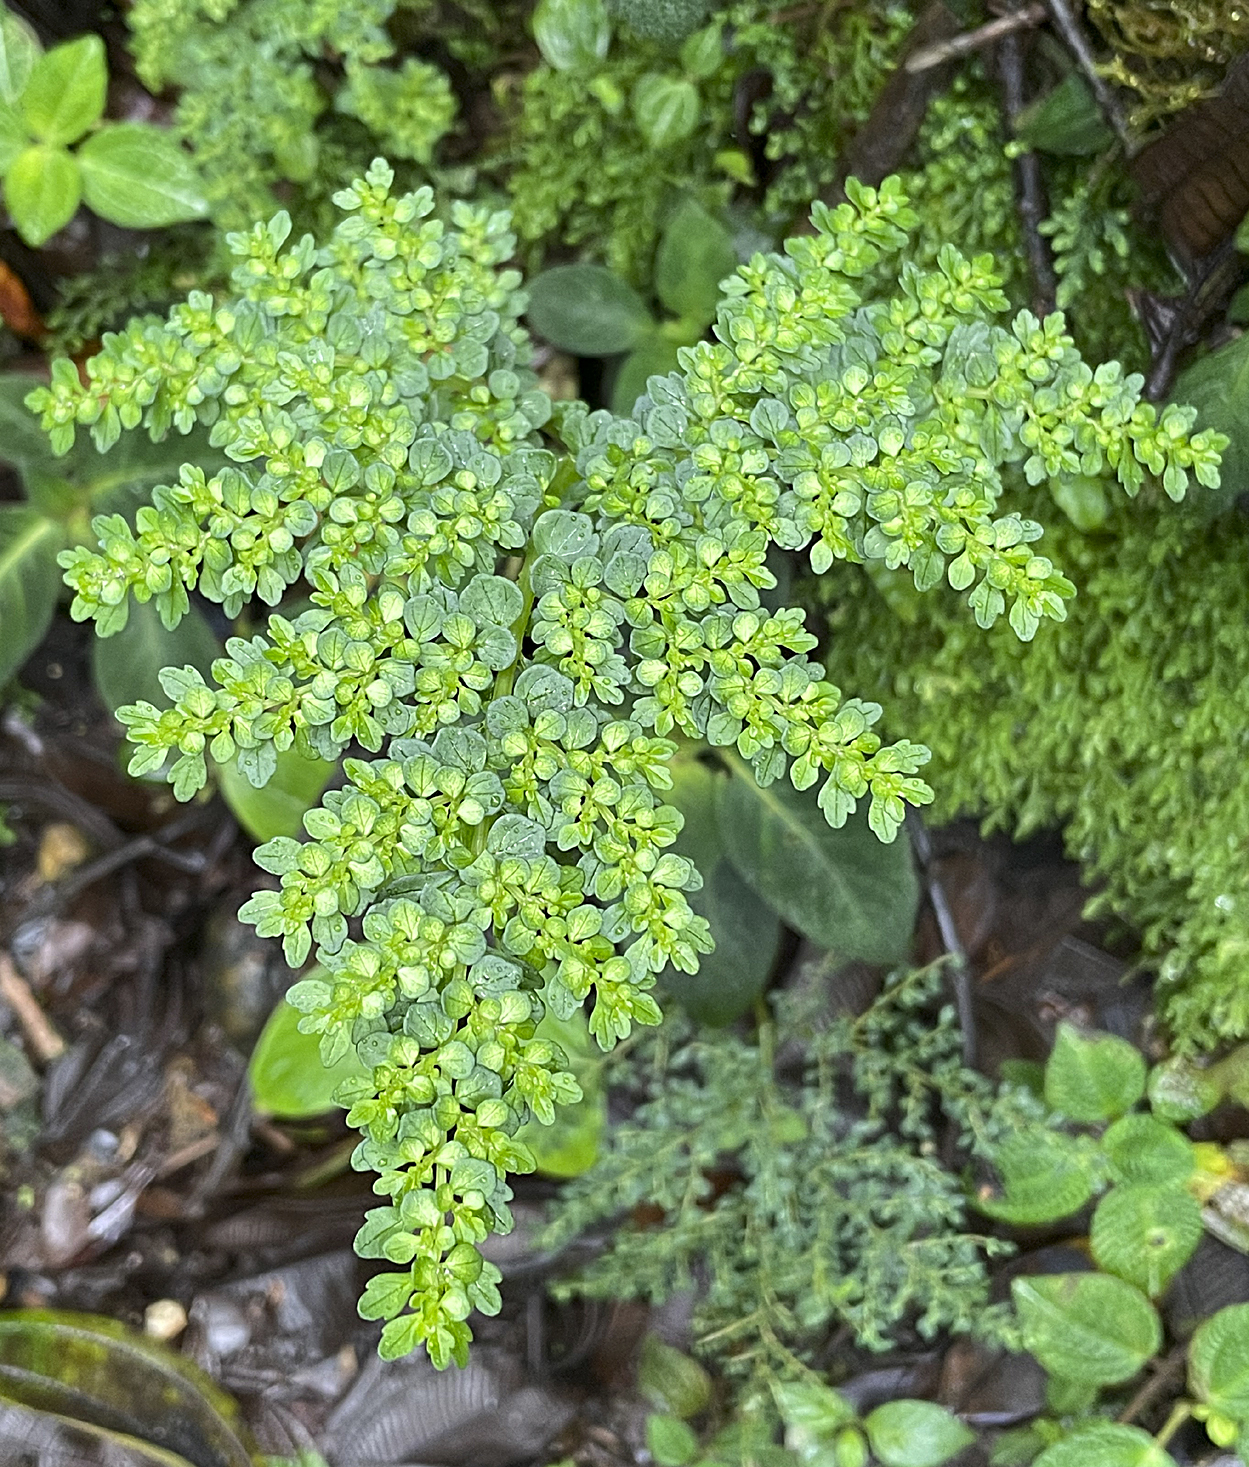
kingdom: Plantae
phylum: Tracheophyta
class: Magnoliopsida
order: Rosales
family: Urticaceae
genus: Pilea
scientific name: Pilea myriophylla
